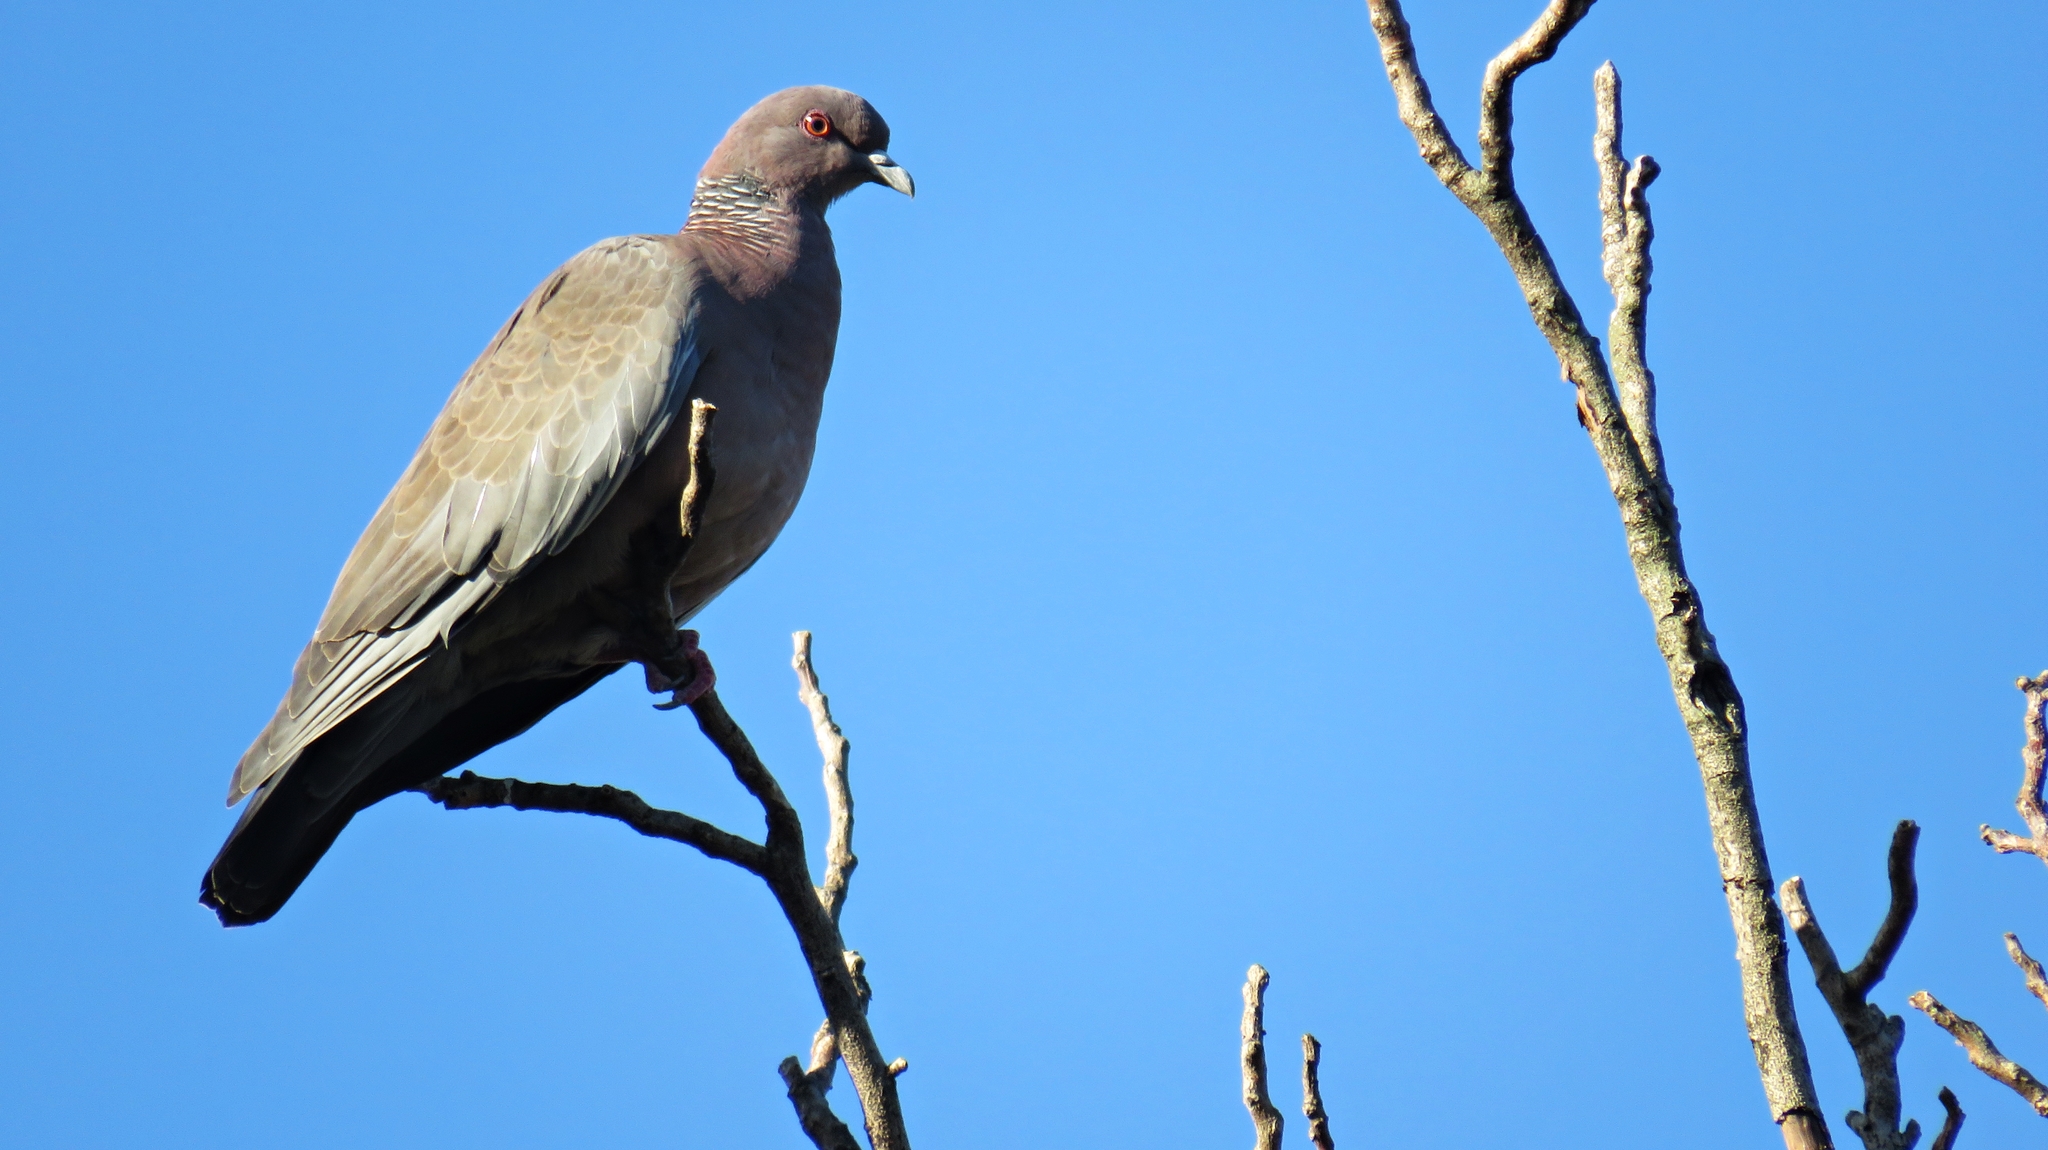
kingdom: Animalia
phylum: Chordata
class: Aves
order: Columbiformes
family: Columbidae
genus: Patagioenas
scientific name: Patagioenas picazuro
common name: Picazuro pigeon
